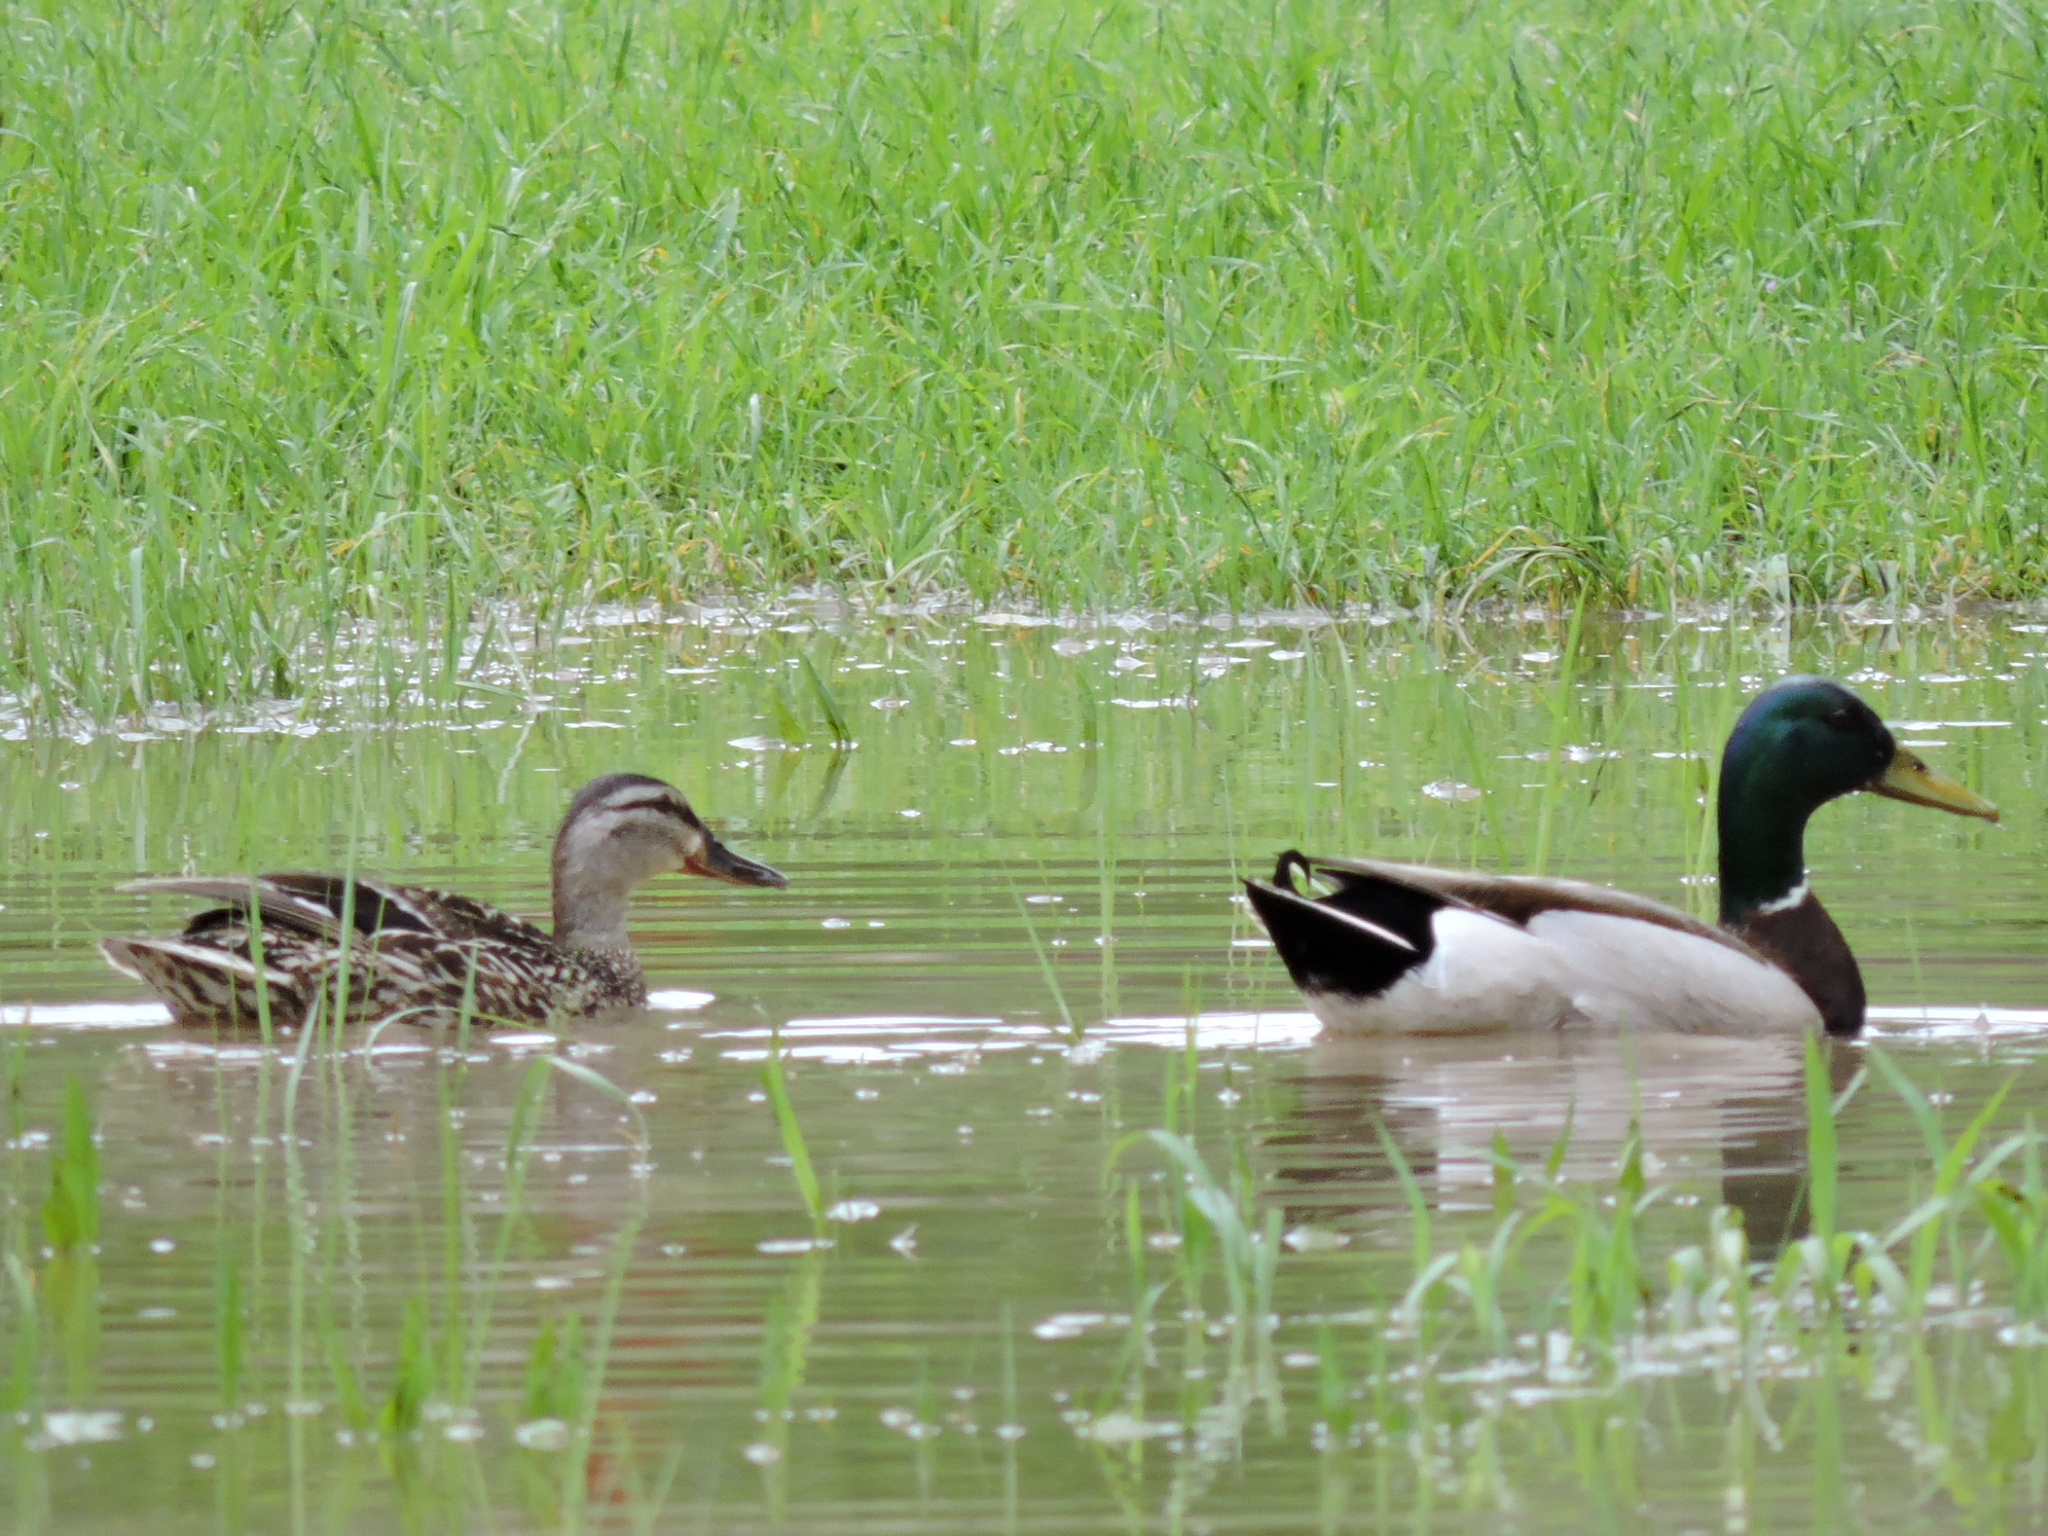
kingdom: Animalia
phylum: Chordata
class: Aves
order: Anseriformes
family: Anatidae
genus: Anas
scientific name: Anas platyrhynchos
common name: Mallard
